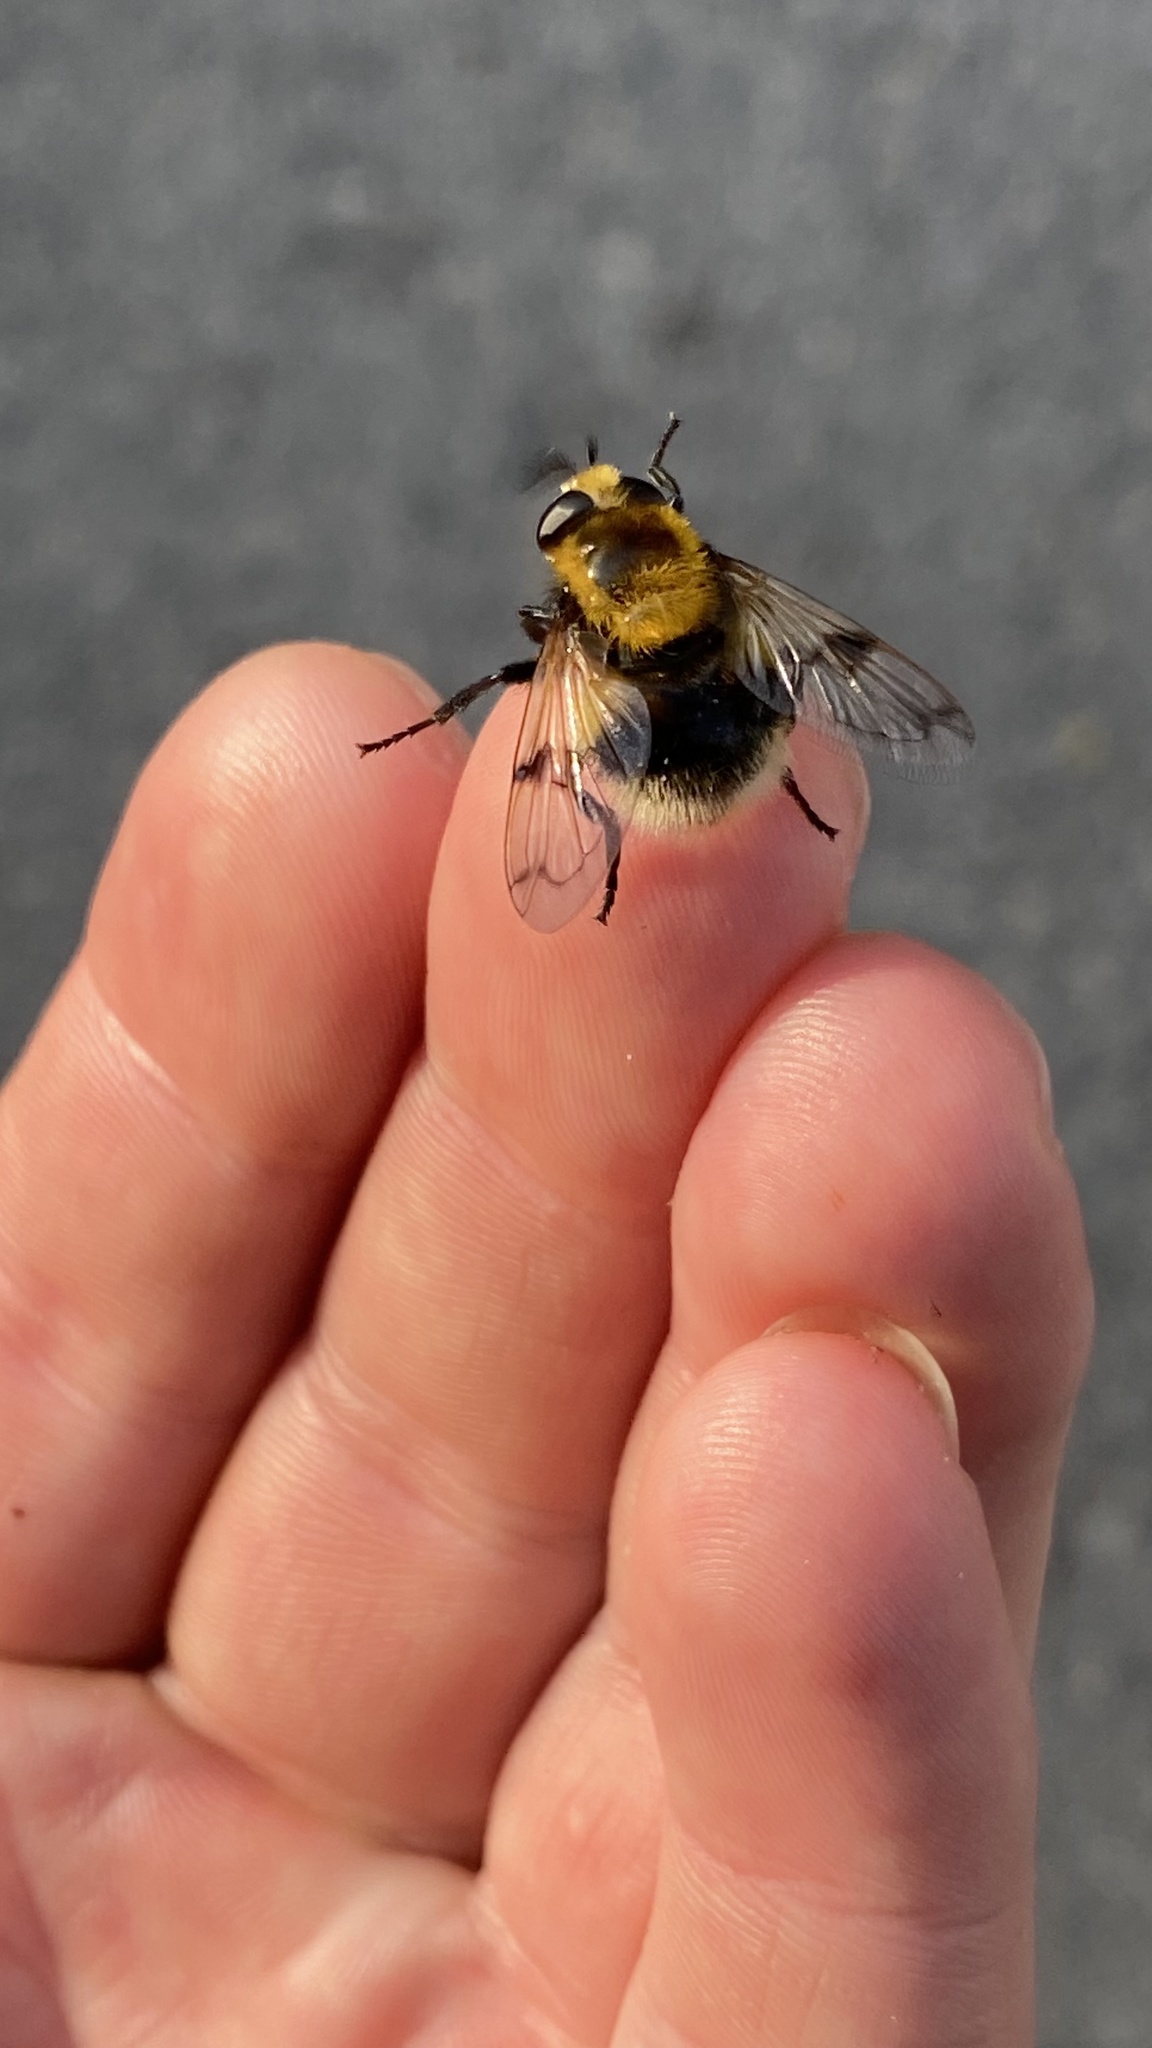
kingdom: Animalia
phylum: Arthropoda
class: Insecta
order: Diptera
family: Syrphidae
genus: Volucella
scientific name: Volucella bombylans
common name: Bumble bee hover fly
